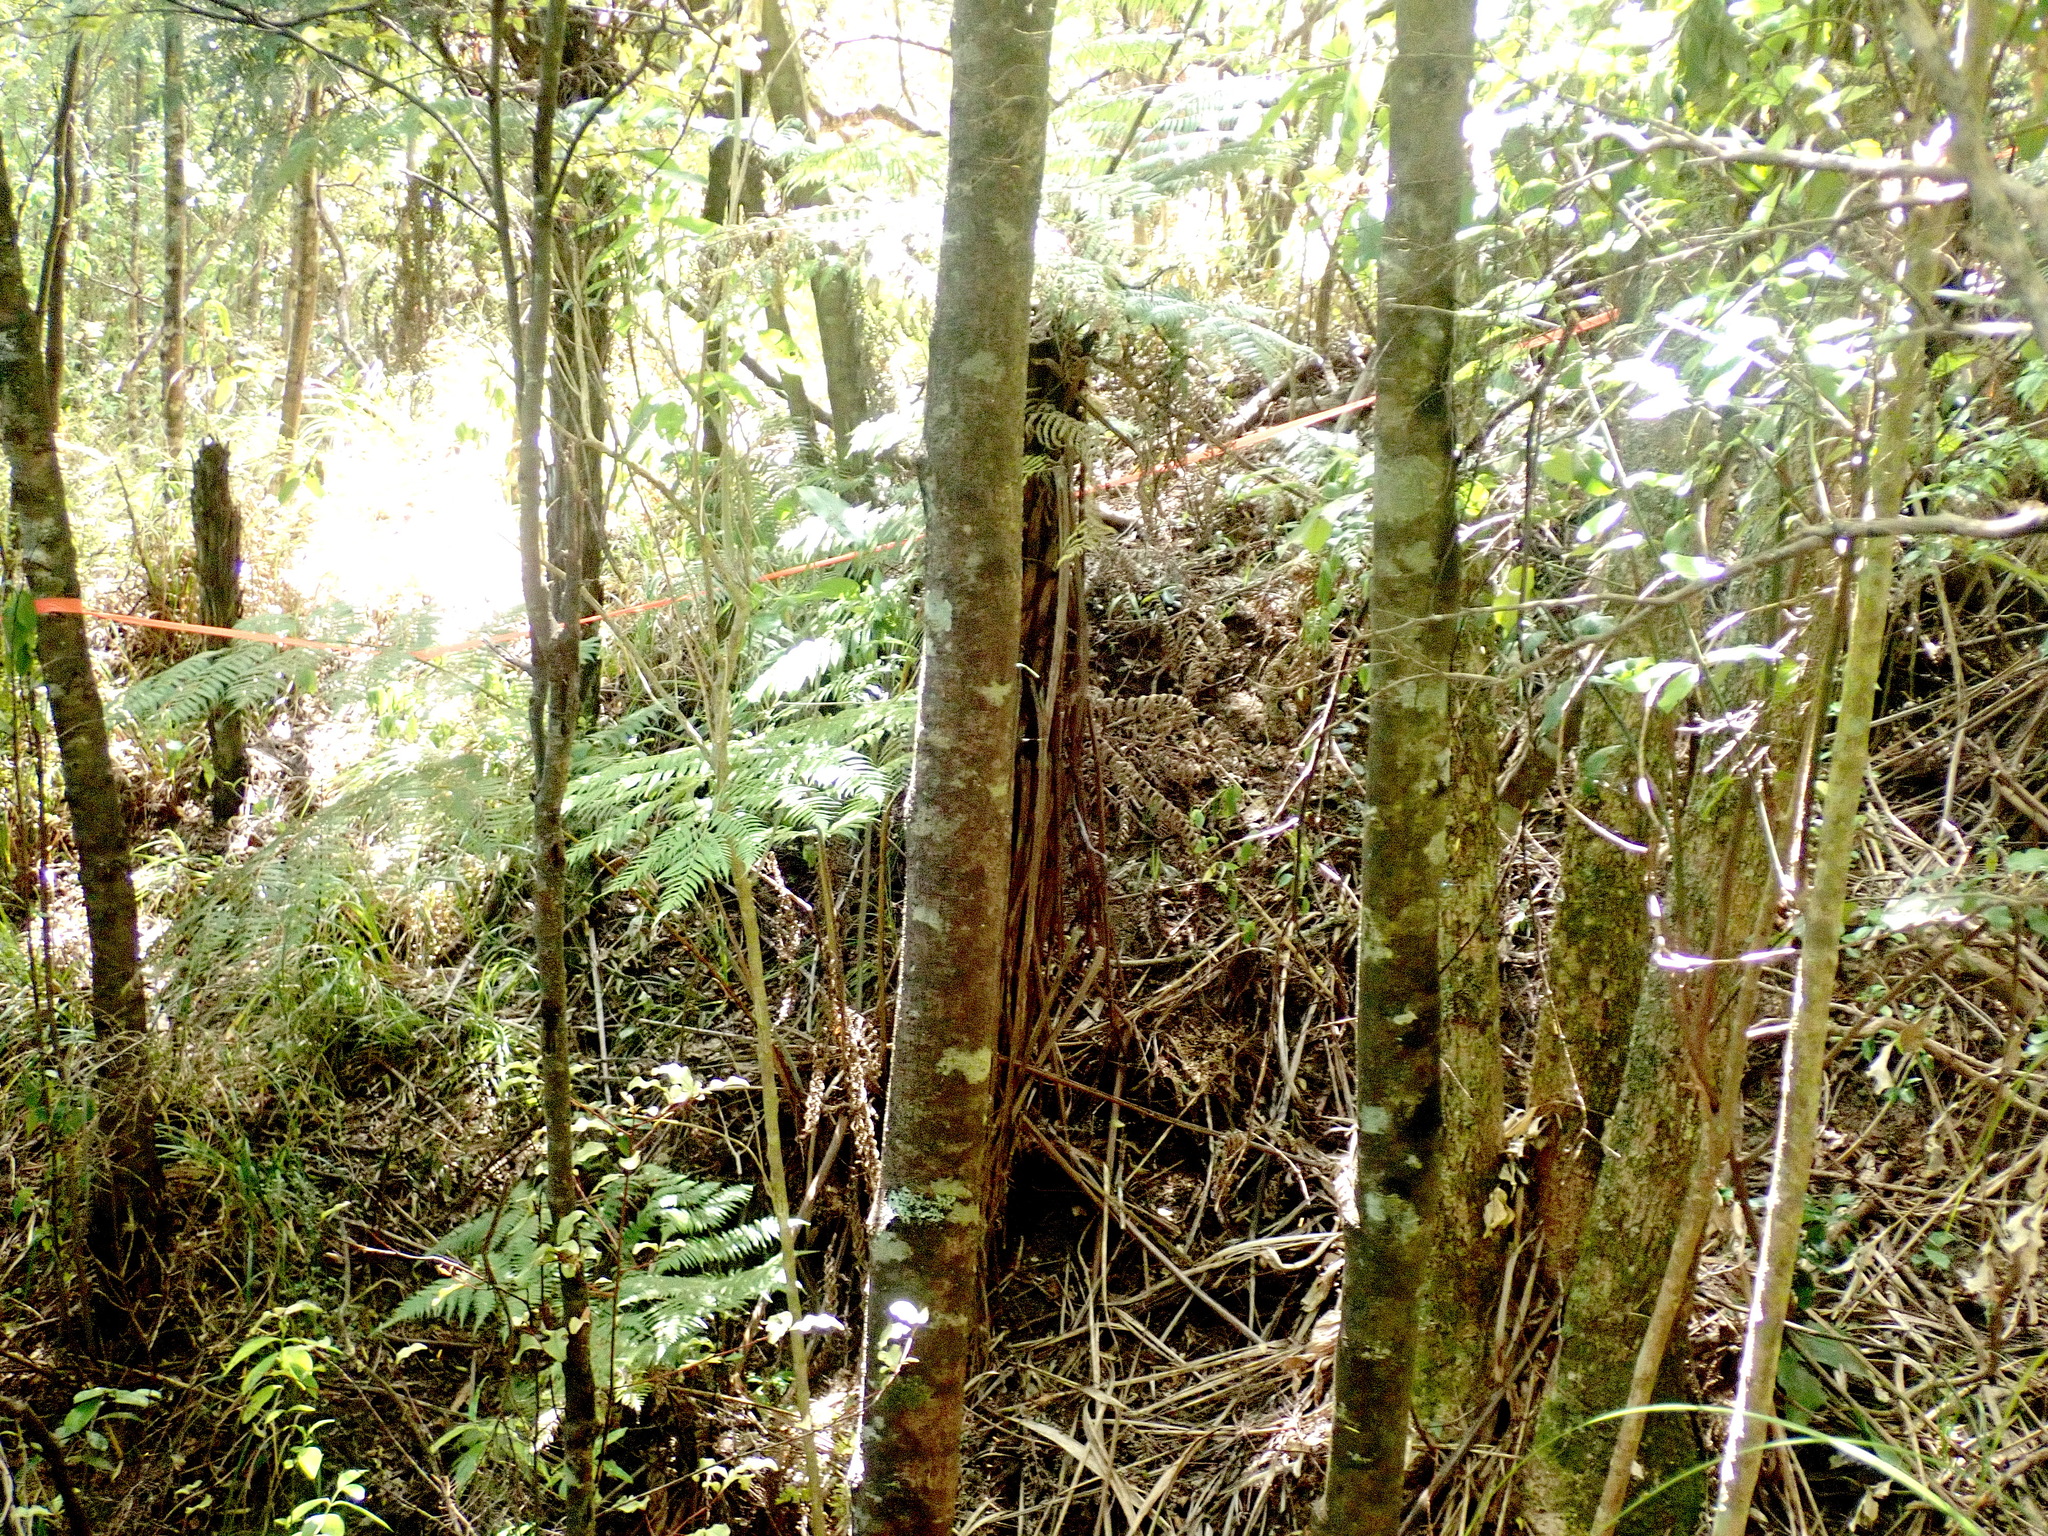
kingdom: Plantae
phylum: Tracheophyta
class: Pinopsida
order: Pinales
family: Phyllocladaceae
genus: Phyllocladus
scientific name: Phyllocladus trichomanoides
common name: Celery pine
